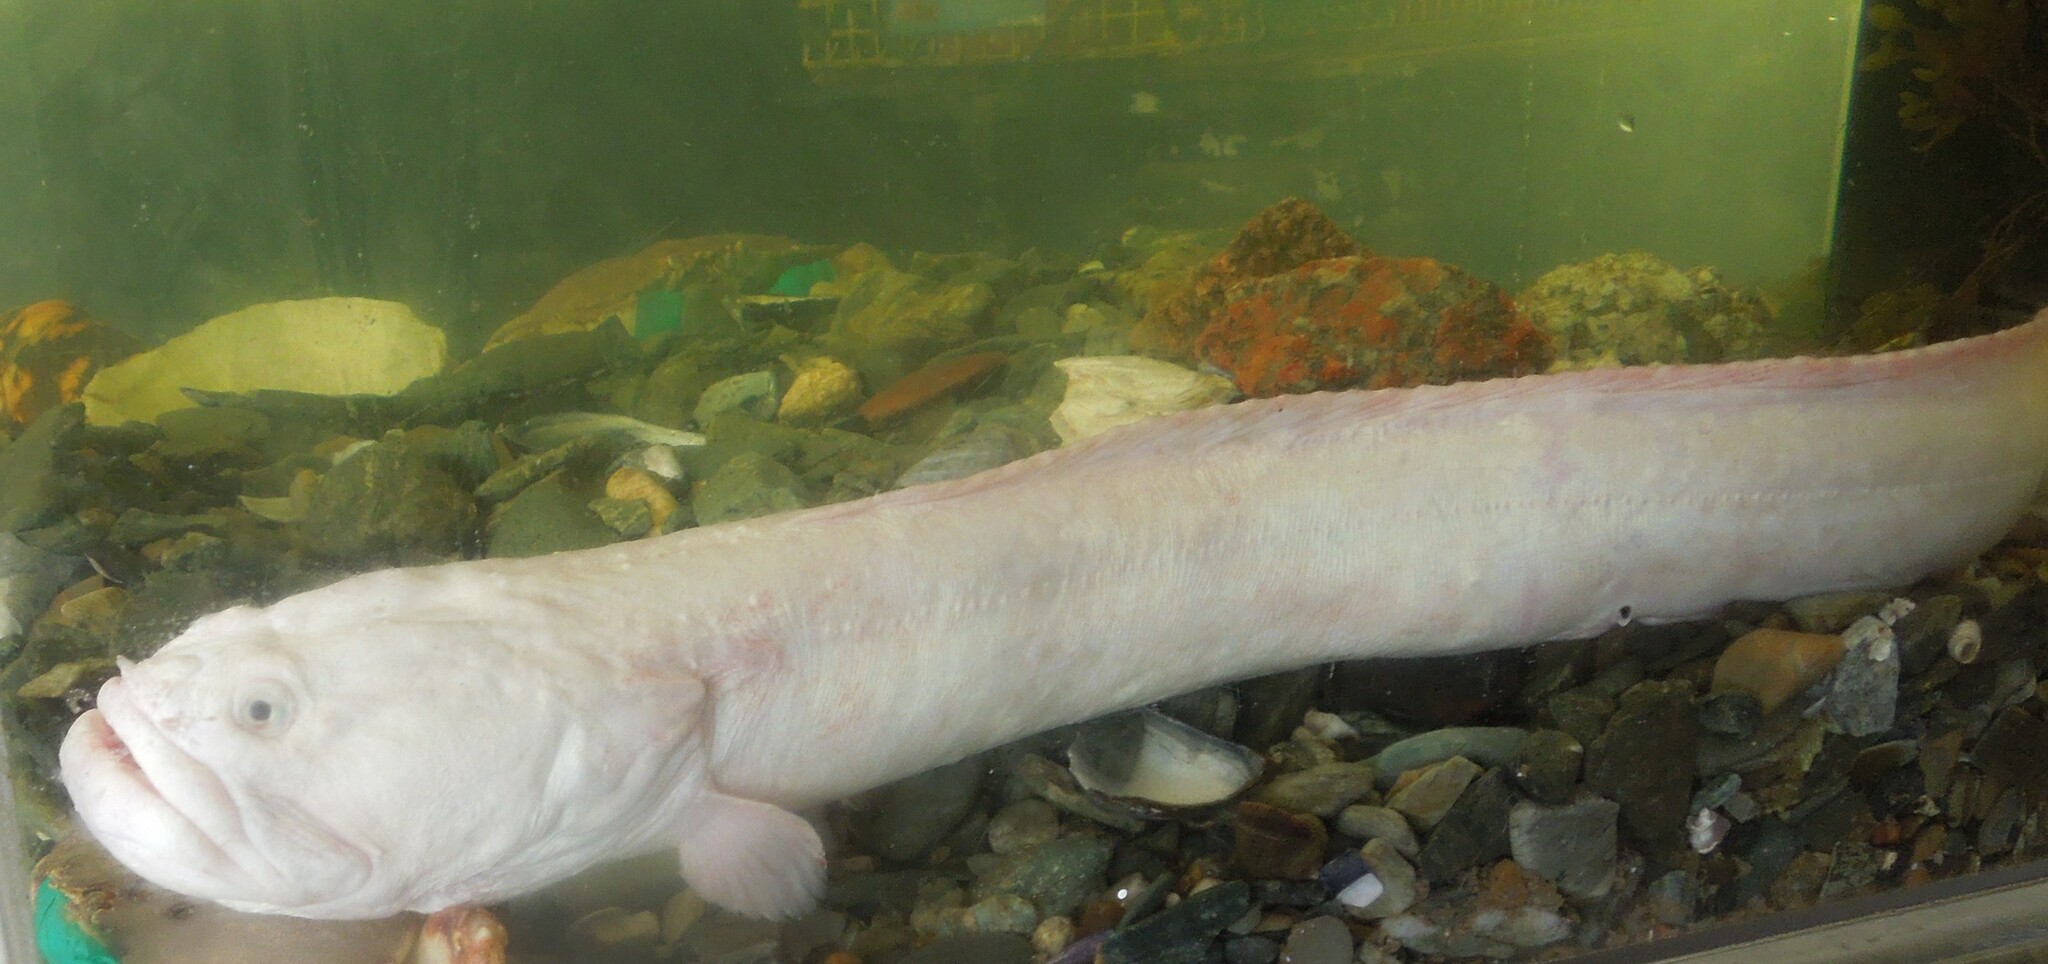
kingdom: Animalia
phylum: Chordata
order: Perciformes
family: Cryptacanthodidae
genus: Cryptacanthodes
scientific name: Cryptacanthodes maculatus
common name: Bastard cusk
